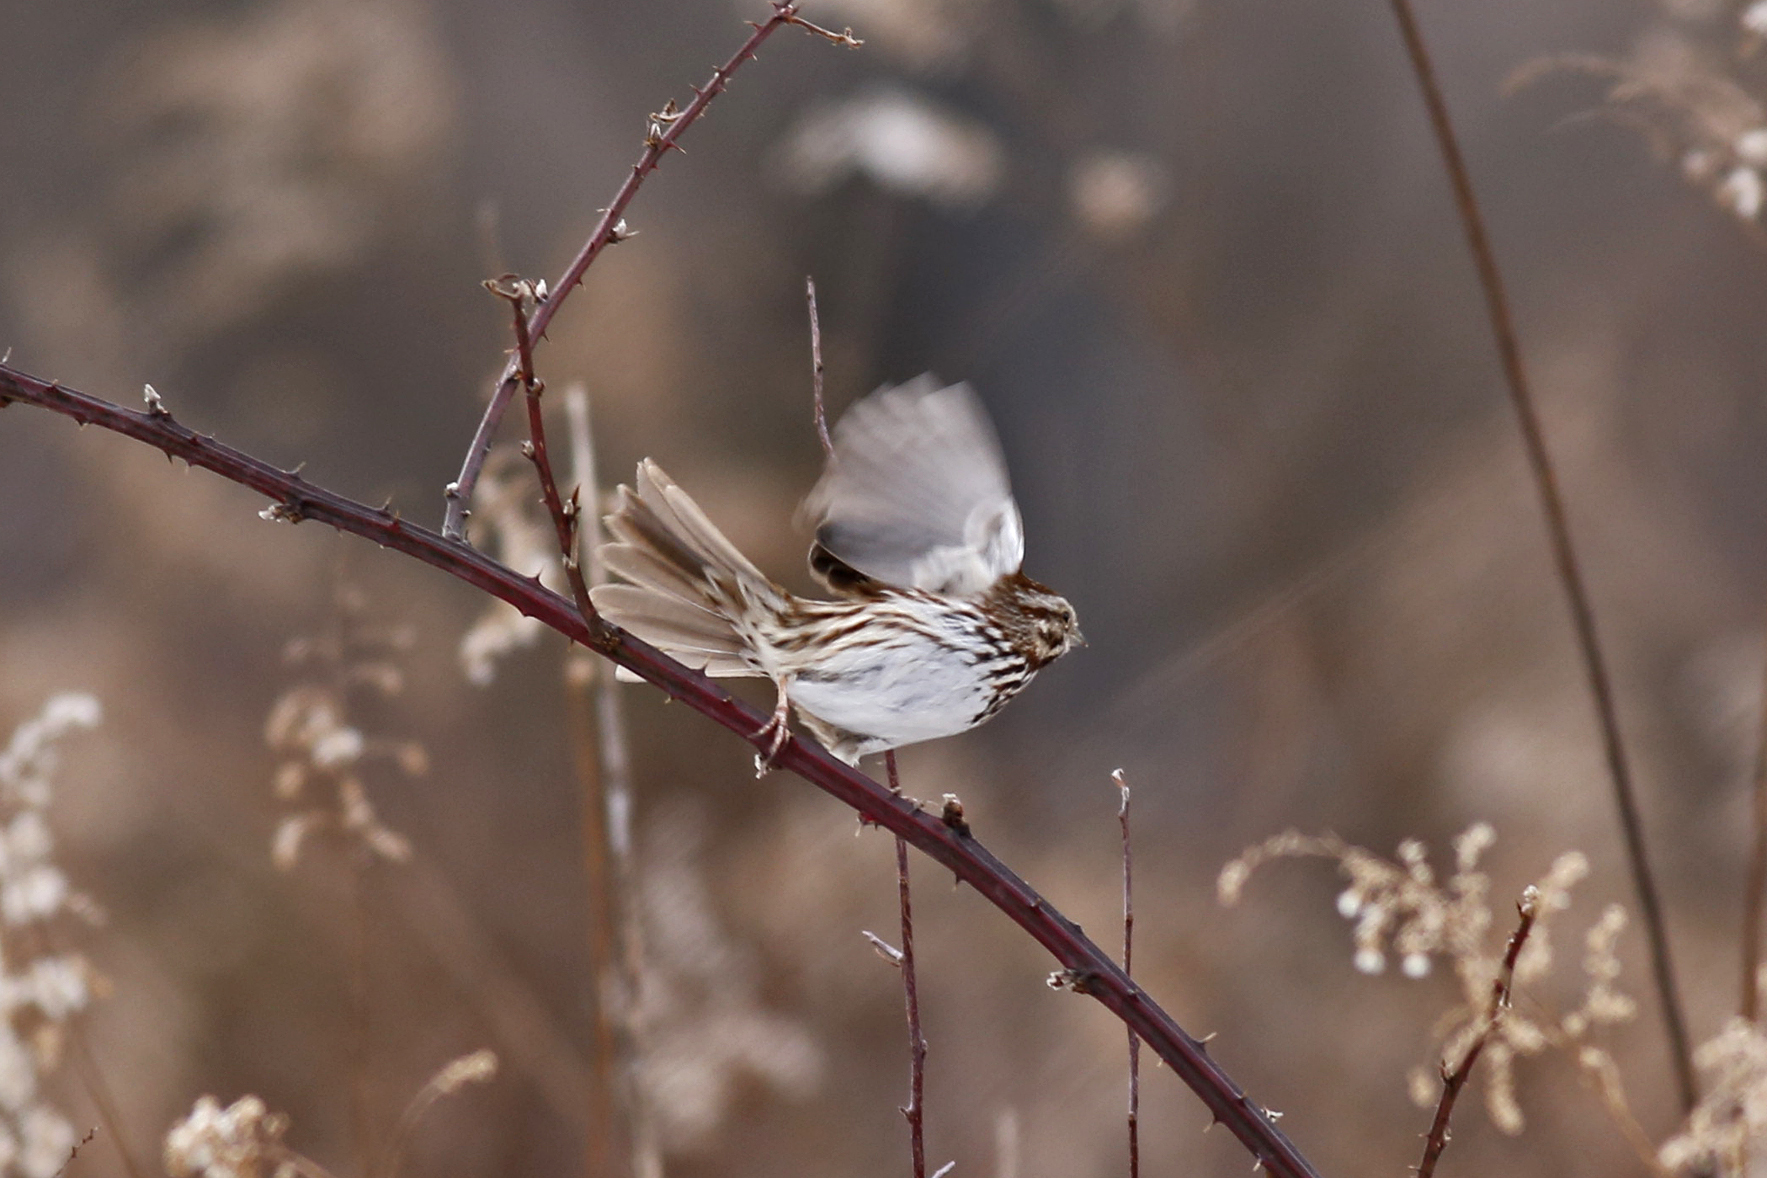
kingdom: Animalia
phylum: Chordata
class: Aves
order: Passeriformes
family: Passerellidae
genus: Melospiza
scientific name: Melospiza melodia
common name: Song sparrow
